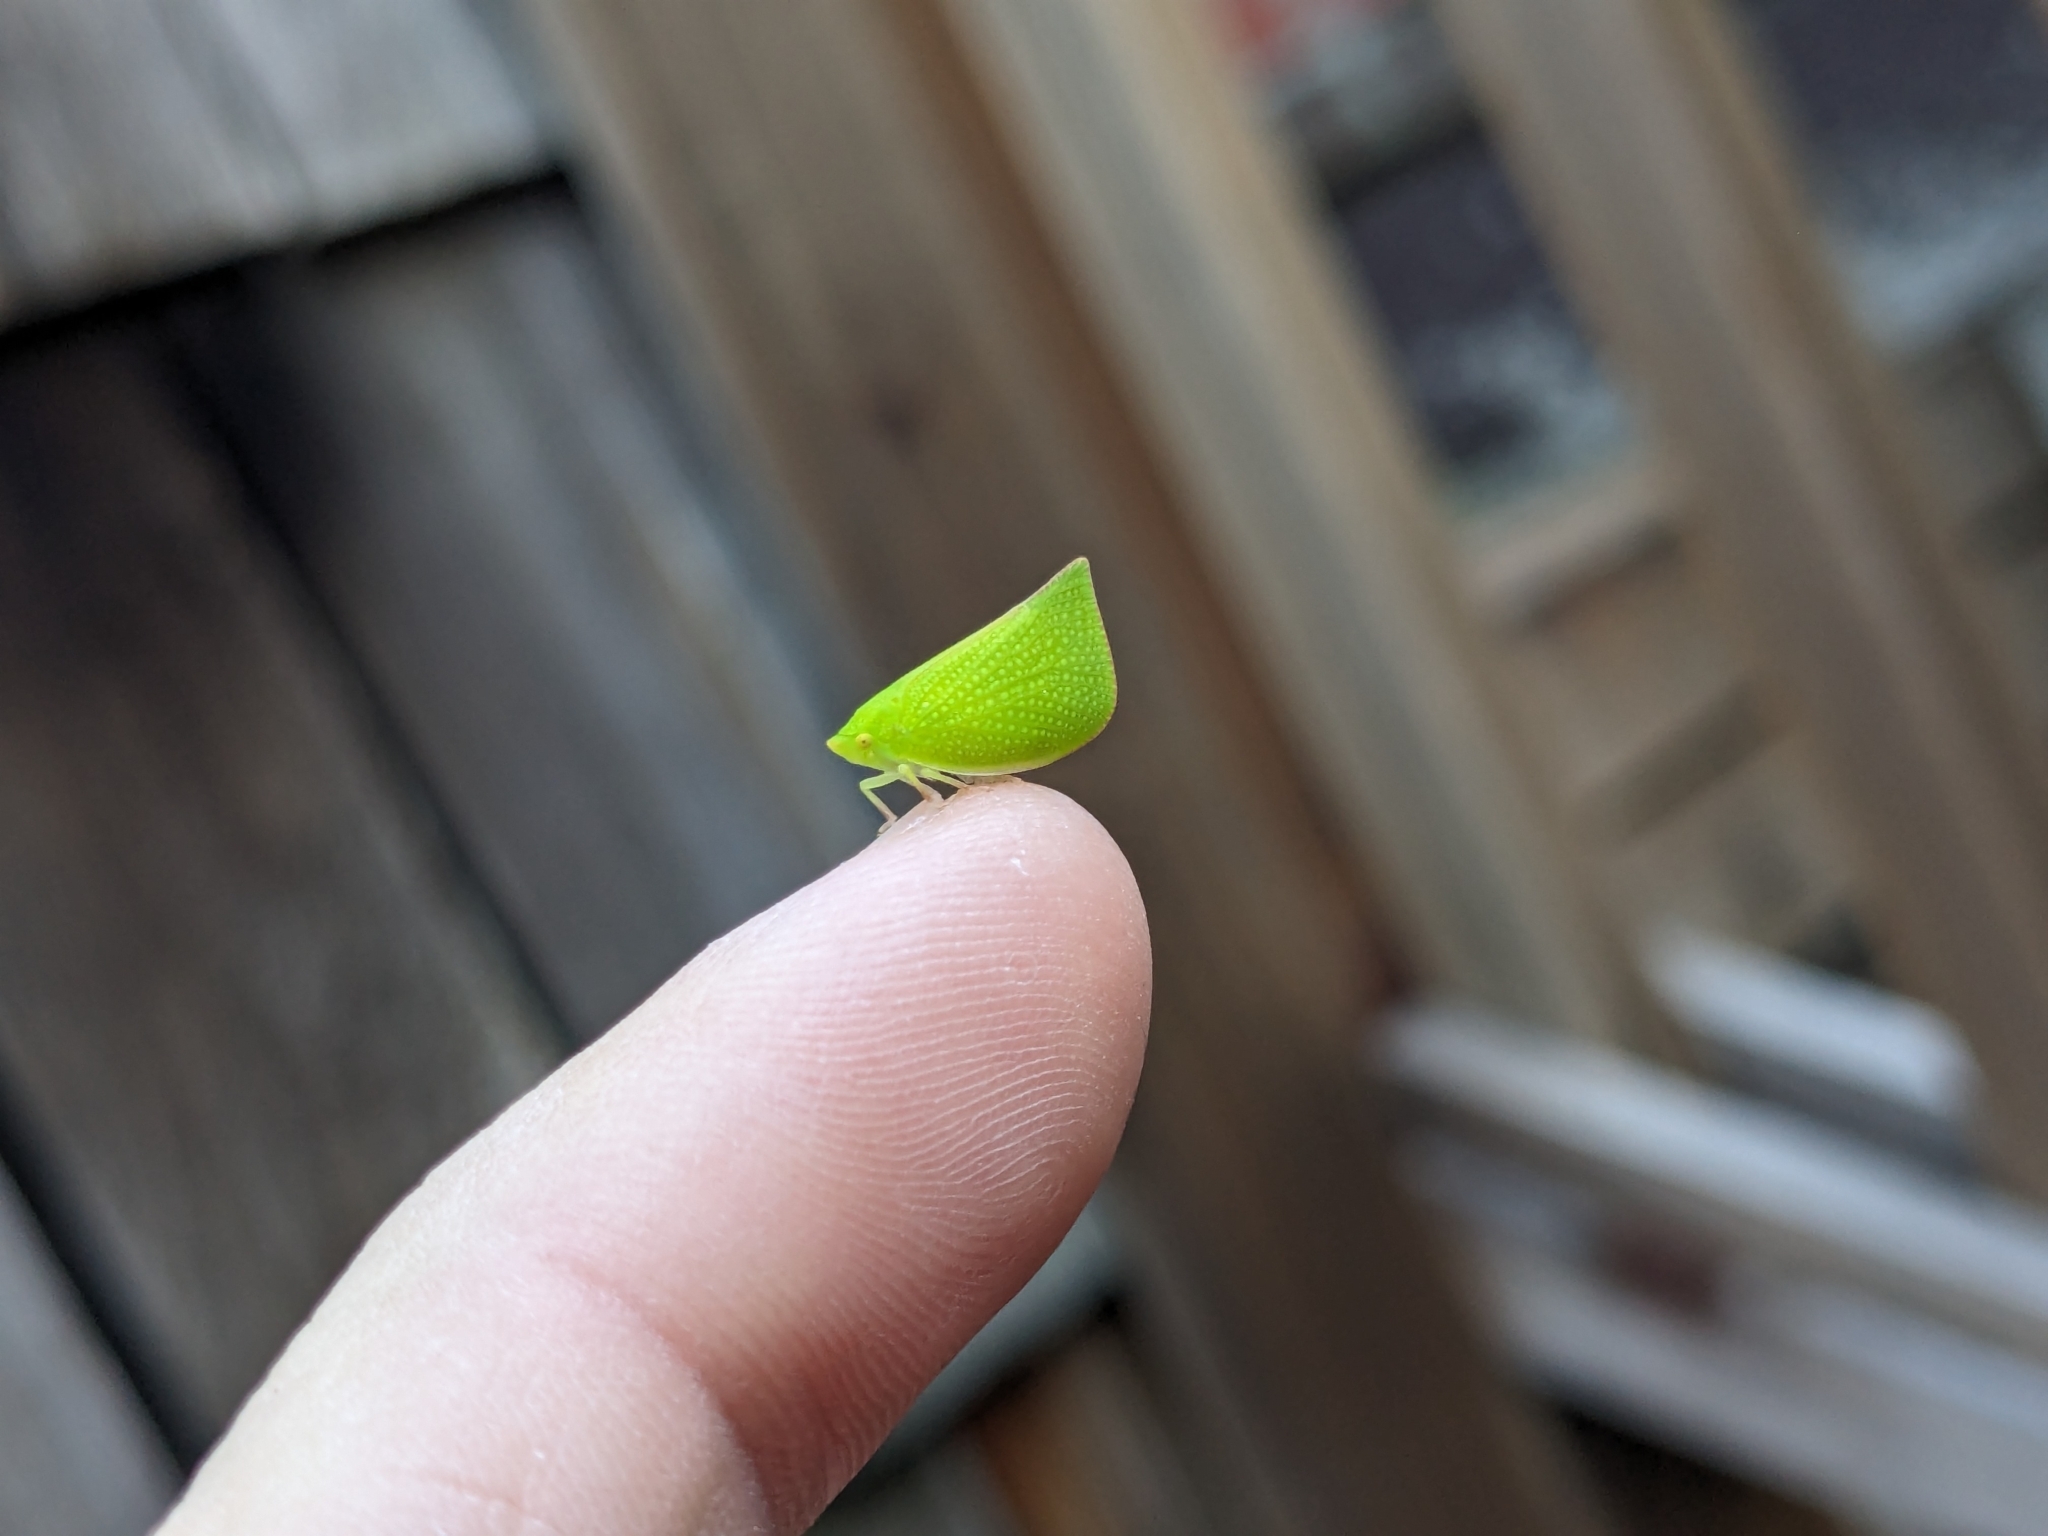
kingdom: Animalia
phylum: Arthropoda
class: Insecta
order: Hemiptera
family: Flatidae
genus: Siphanta
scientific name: Siphanta acuta
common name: Torpedo bug
